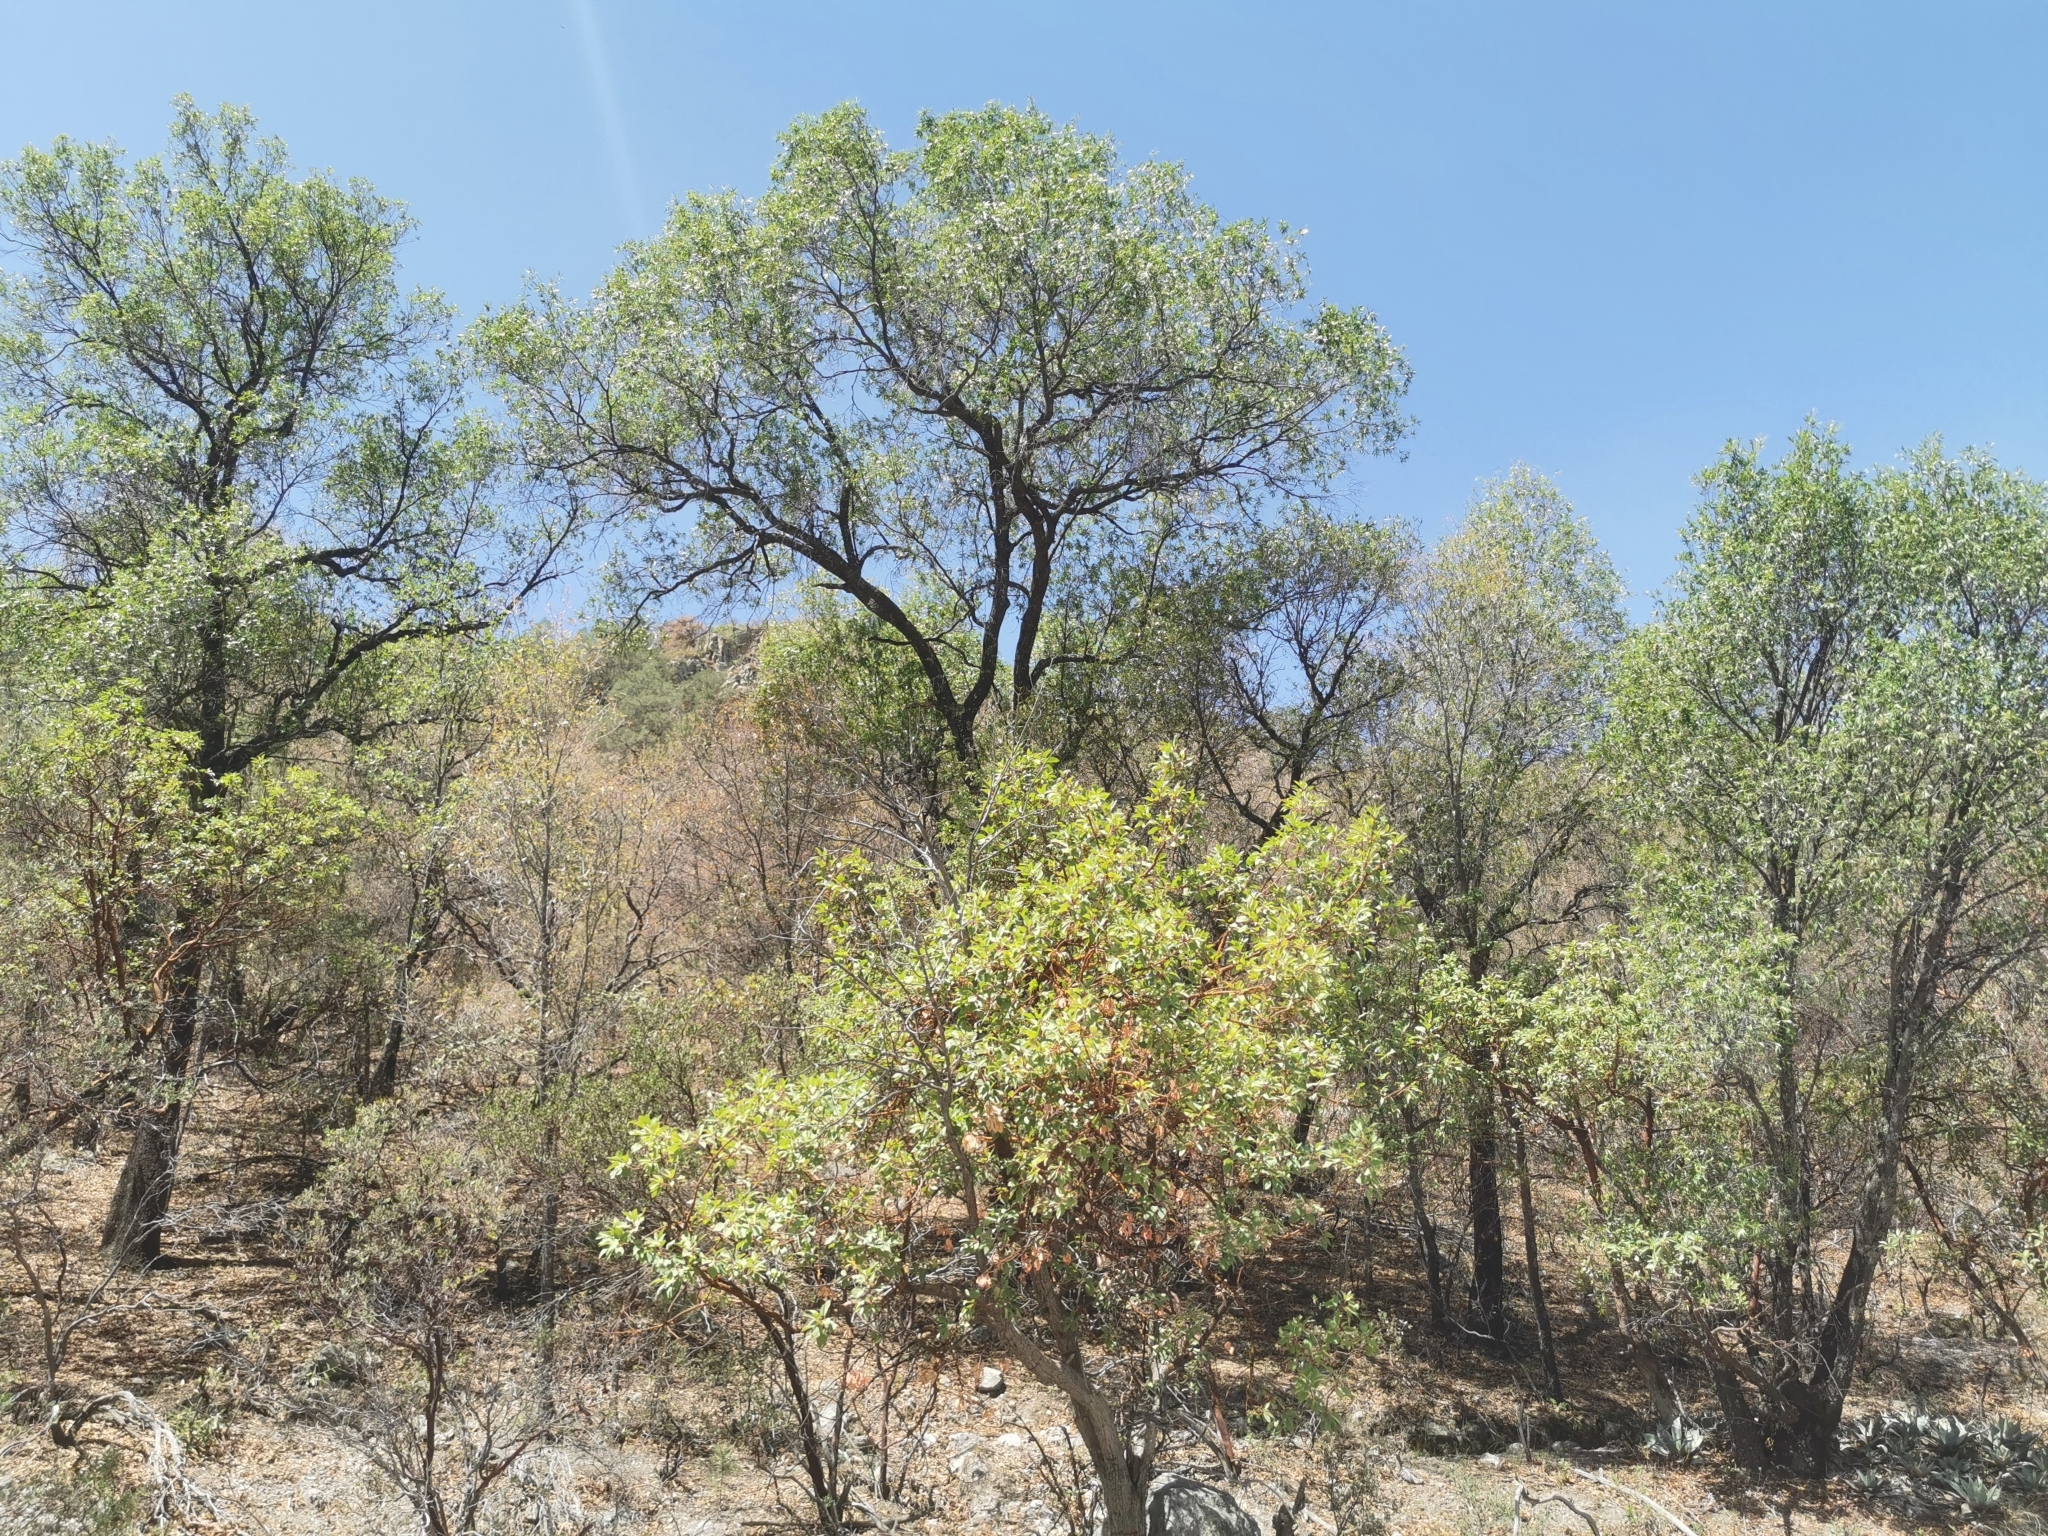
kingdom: Plantae
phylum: Tracheophyta
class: Magnoliopsida
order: Ericales
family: Ericaceae
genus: Arbutus
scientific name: Arbutus arizonica
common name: Arizona madrone
